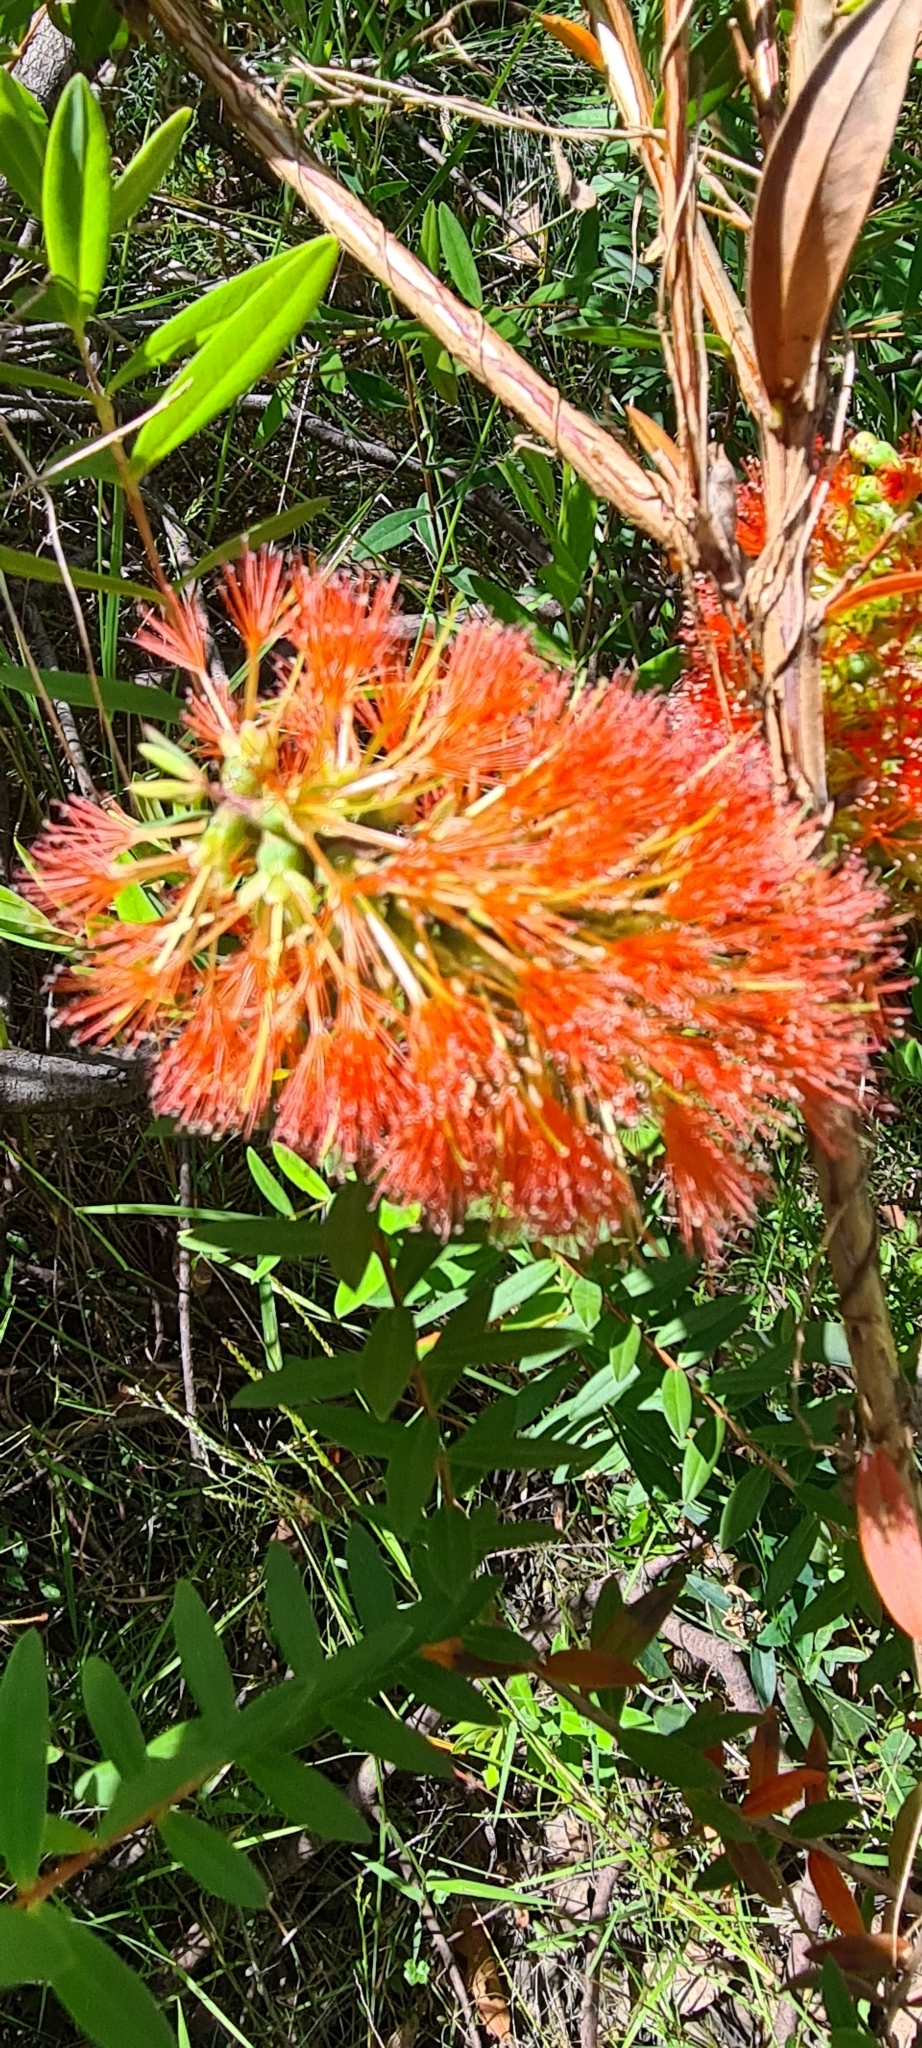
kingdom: Plantae
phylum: Tracheophyta
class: Magnoliopsida
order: Myrtales
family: Myrtaceae
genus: Melaleuca
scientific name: Melaleuca hypericifolia
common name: Red honey myrtle
